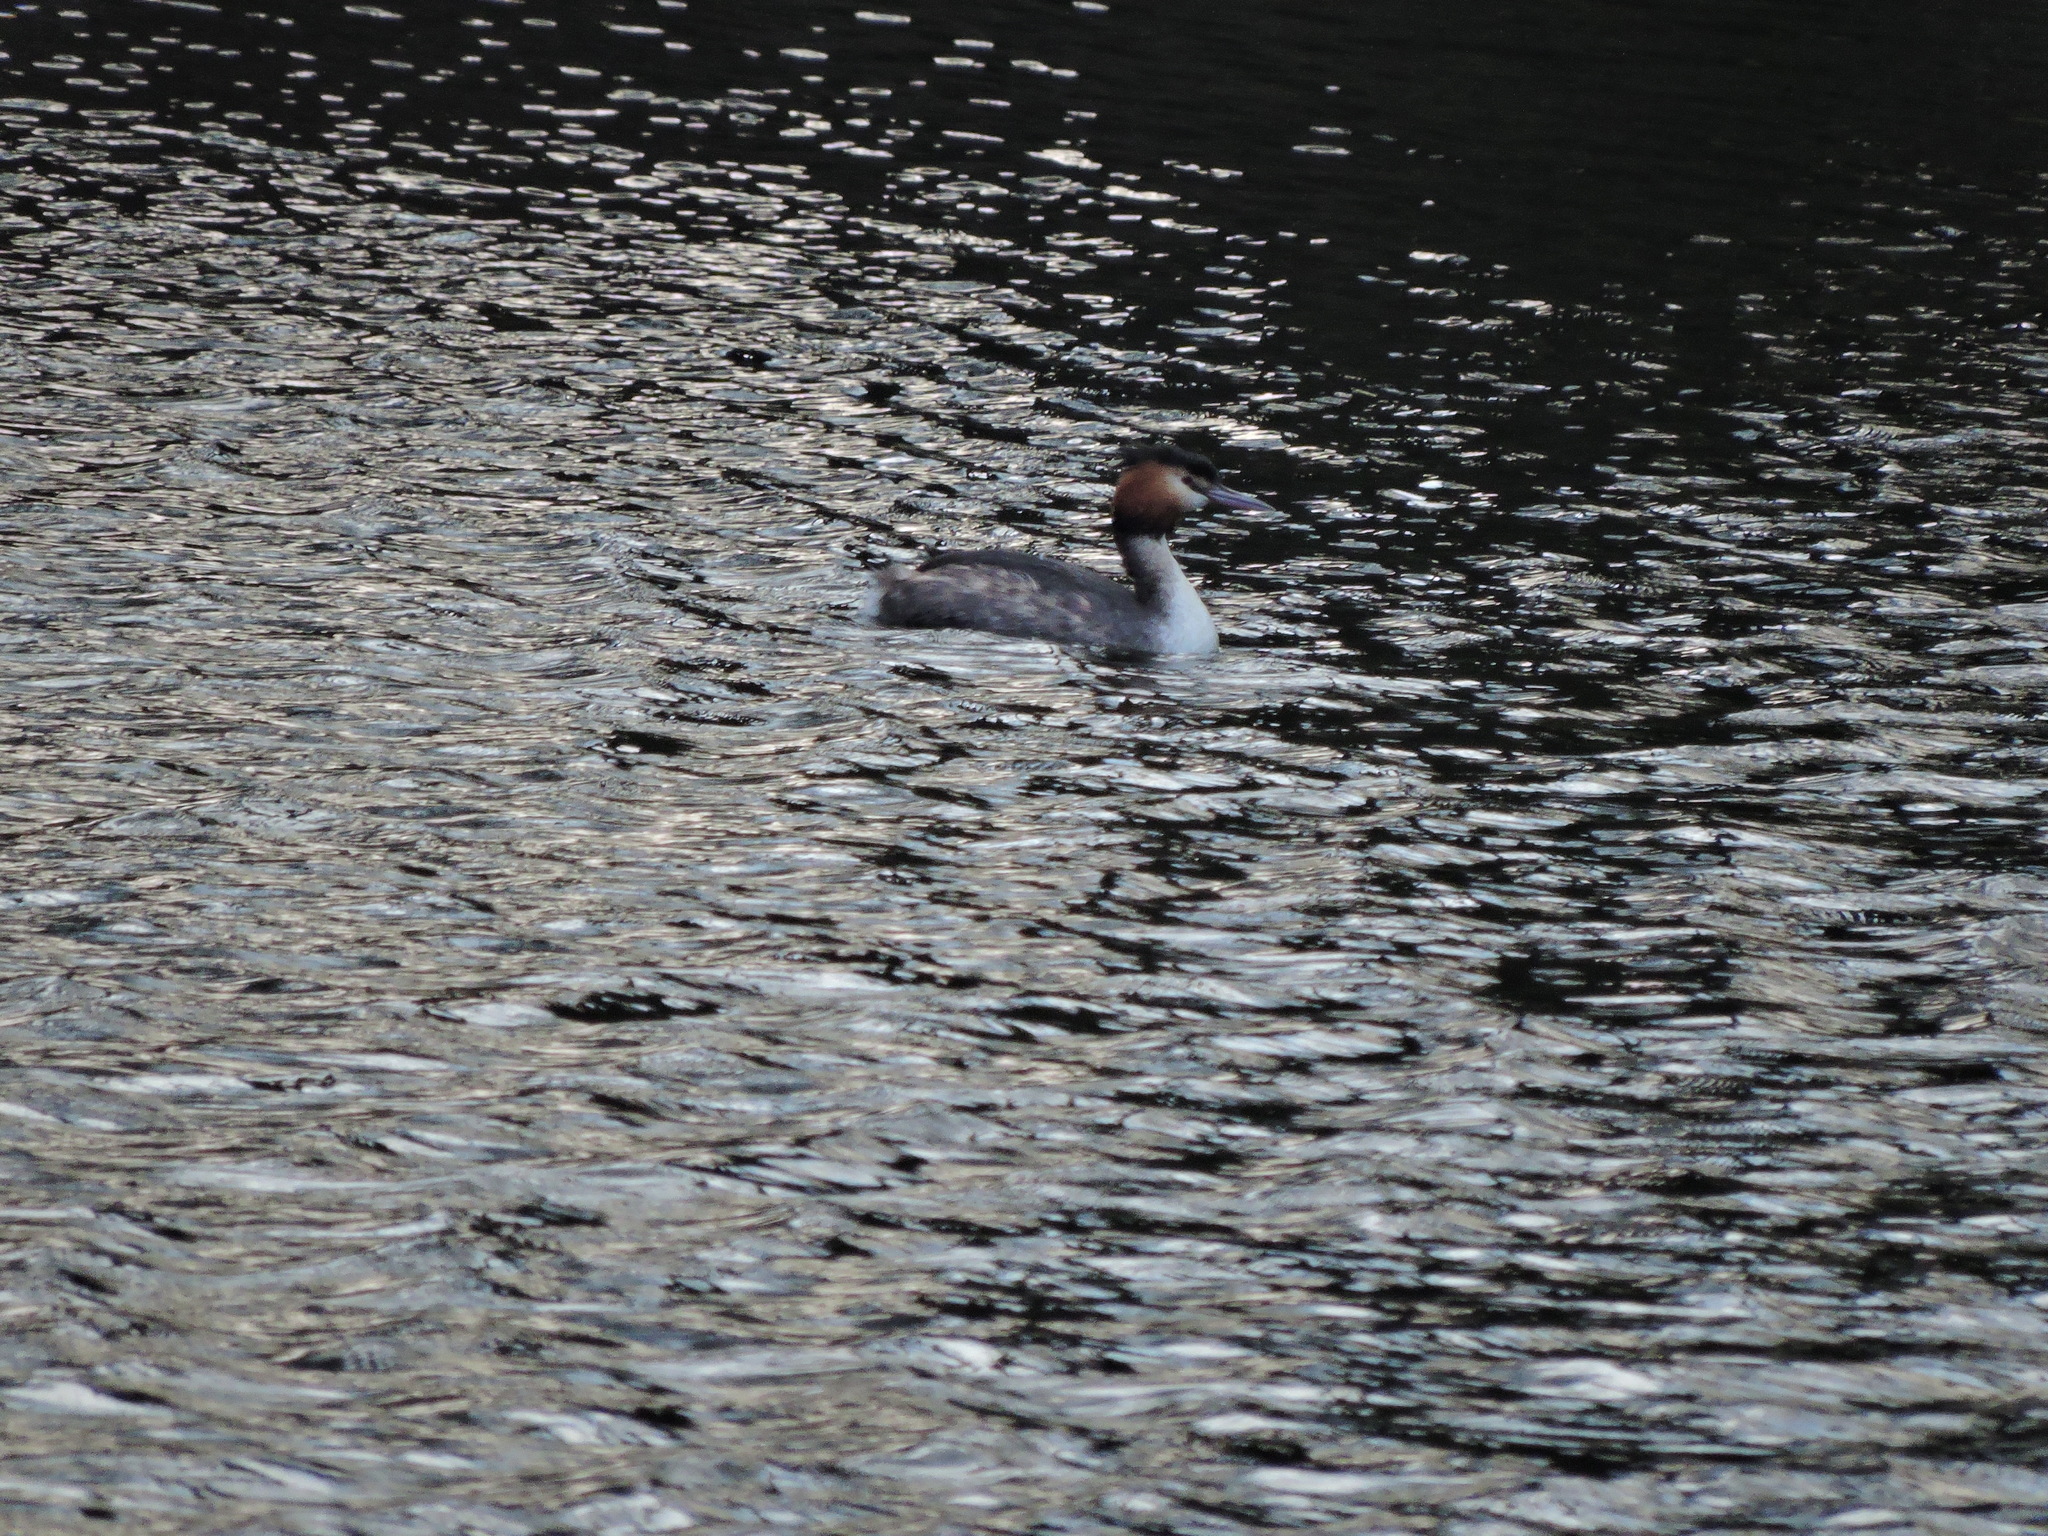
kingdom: Animalia
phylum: Chordata
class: Aves
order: Podicipediformes
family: Podicipedidae
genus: Podiceps
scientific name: Podiceps cristatus
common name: Great crested grebe
